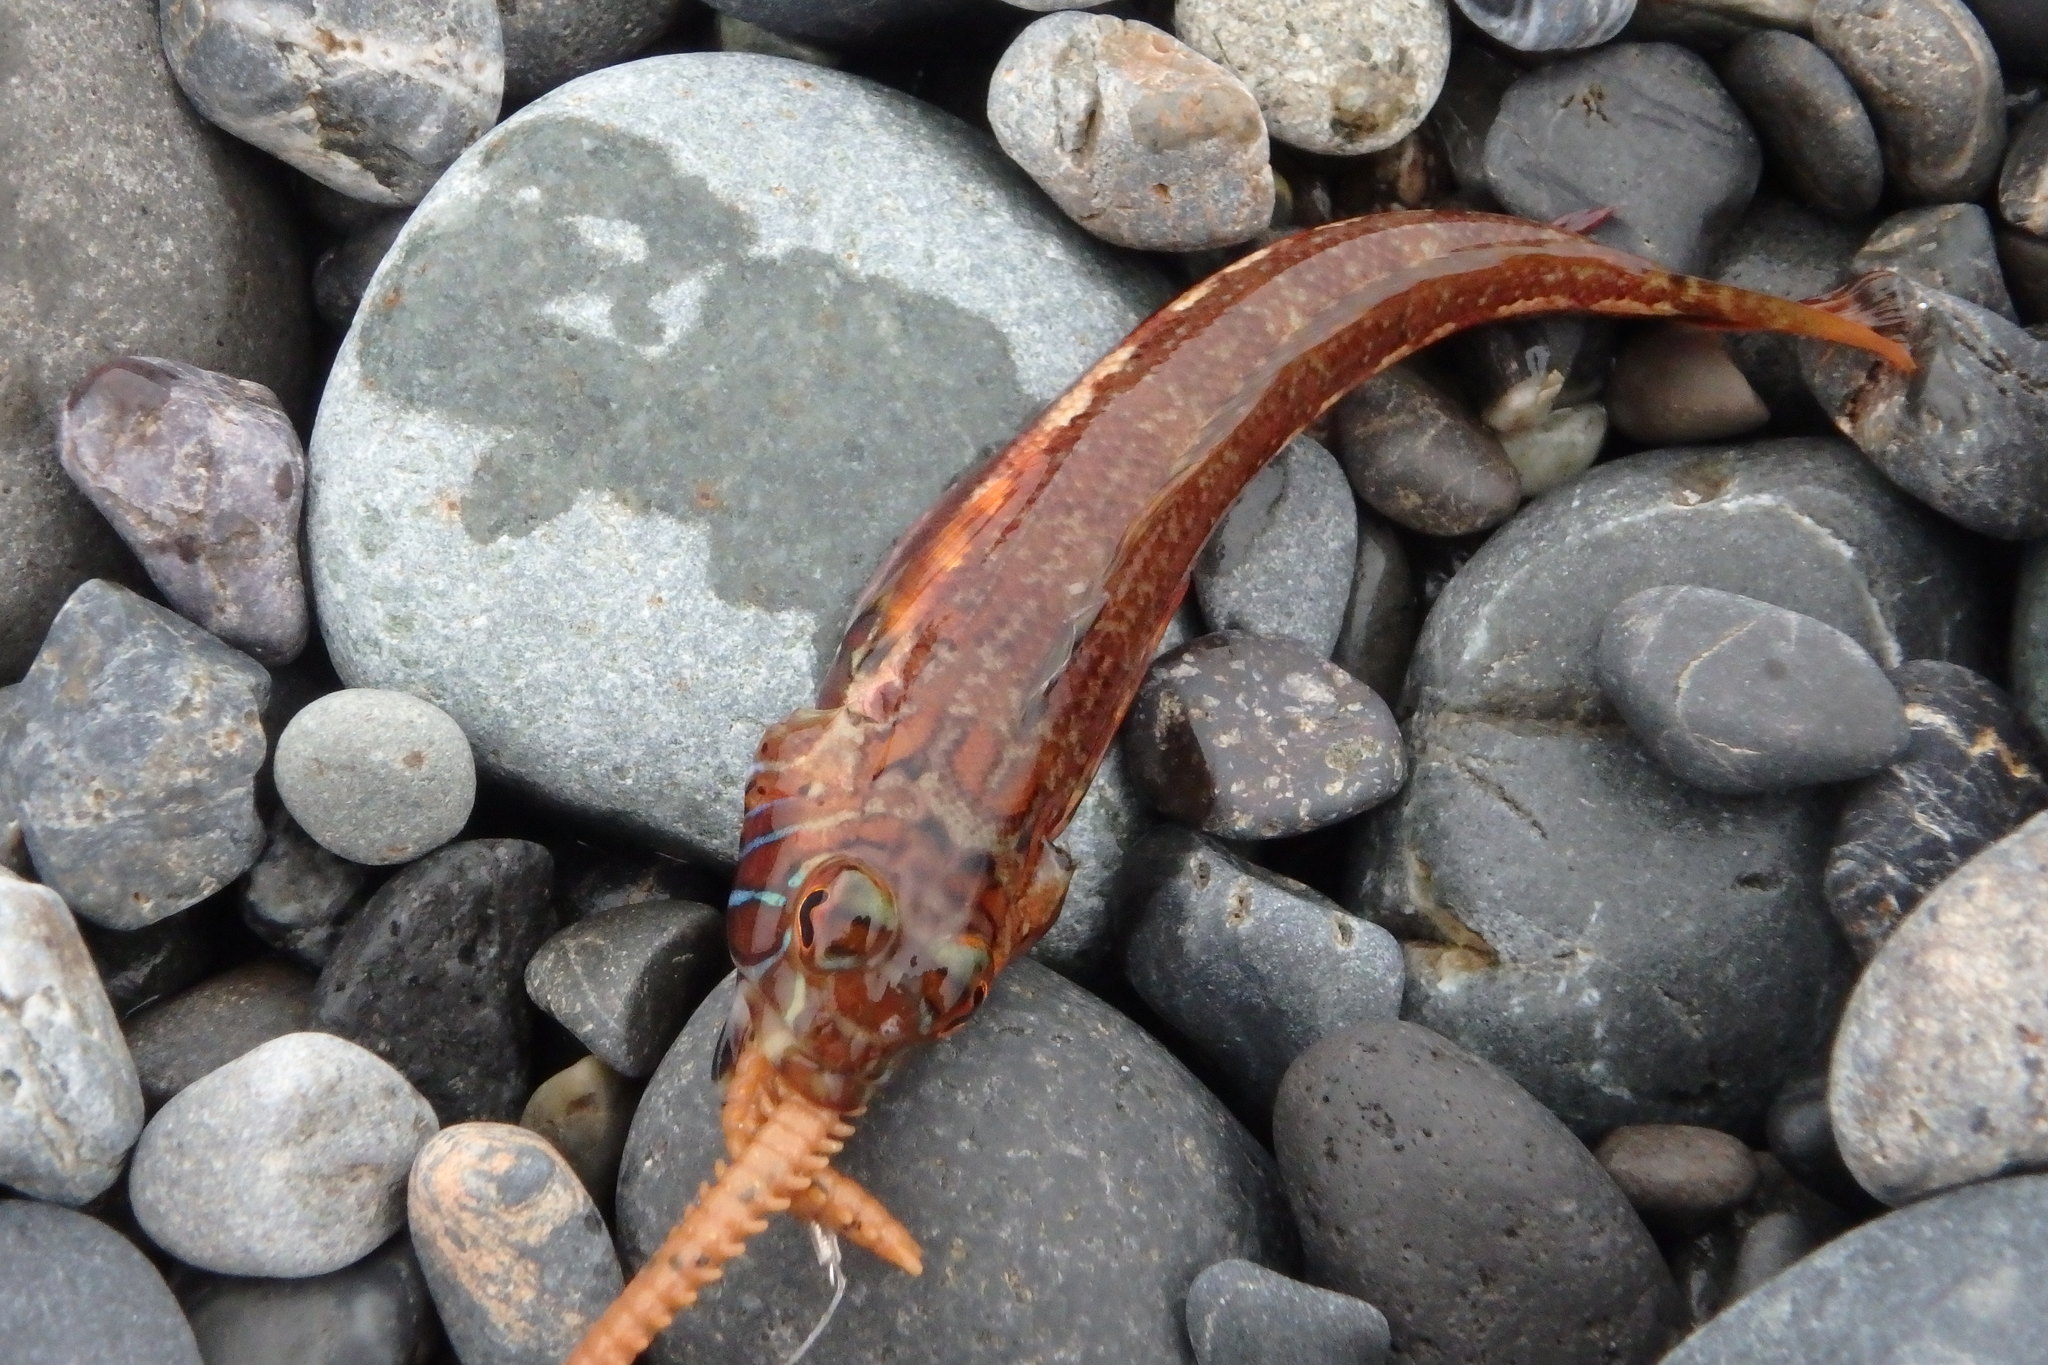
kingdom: Animalia
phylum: Chordata
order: Perciformes
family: Pinguipedidae
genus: Parapercis
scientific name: Parapercis pulchella
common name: Grub fish
